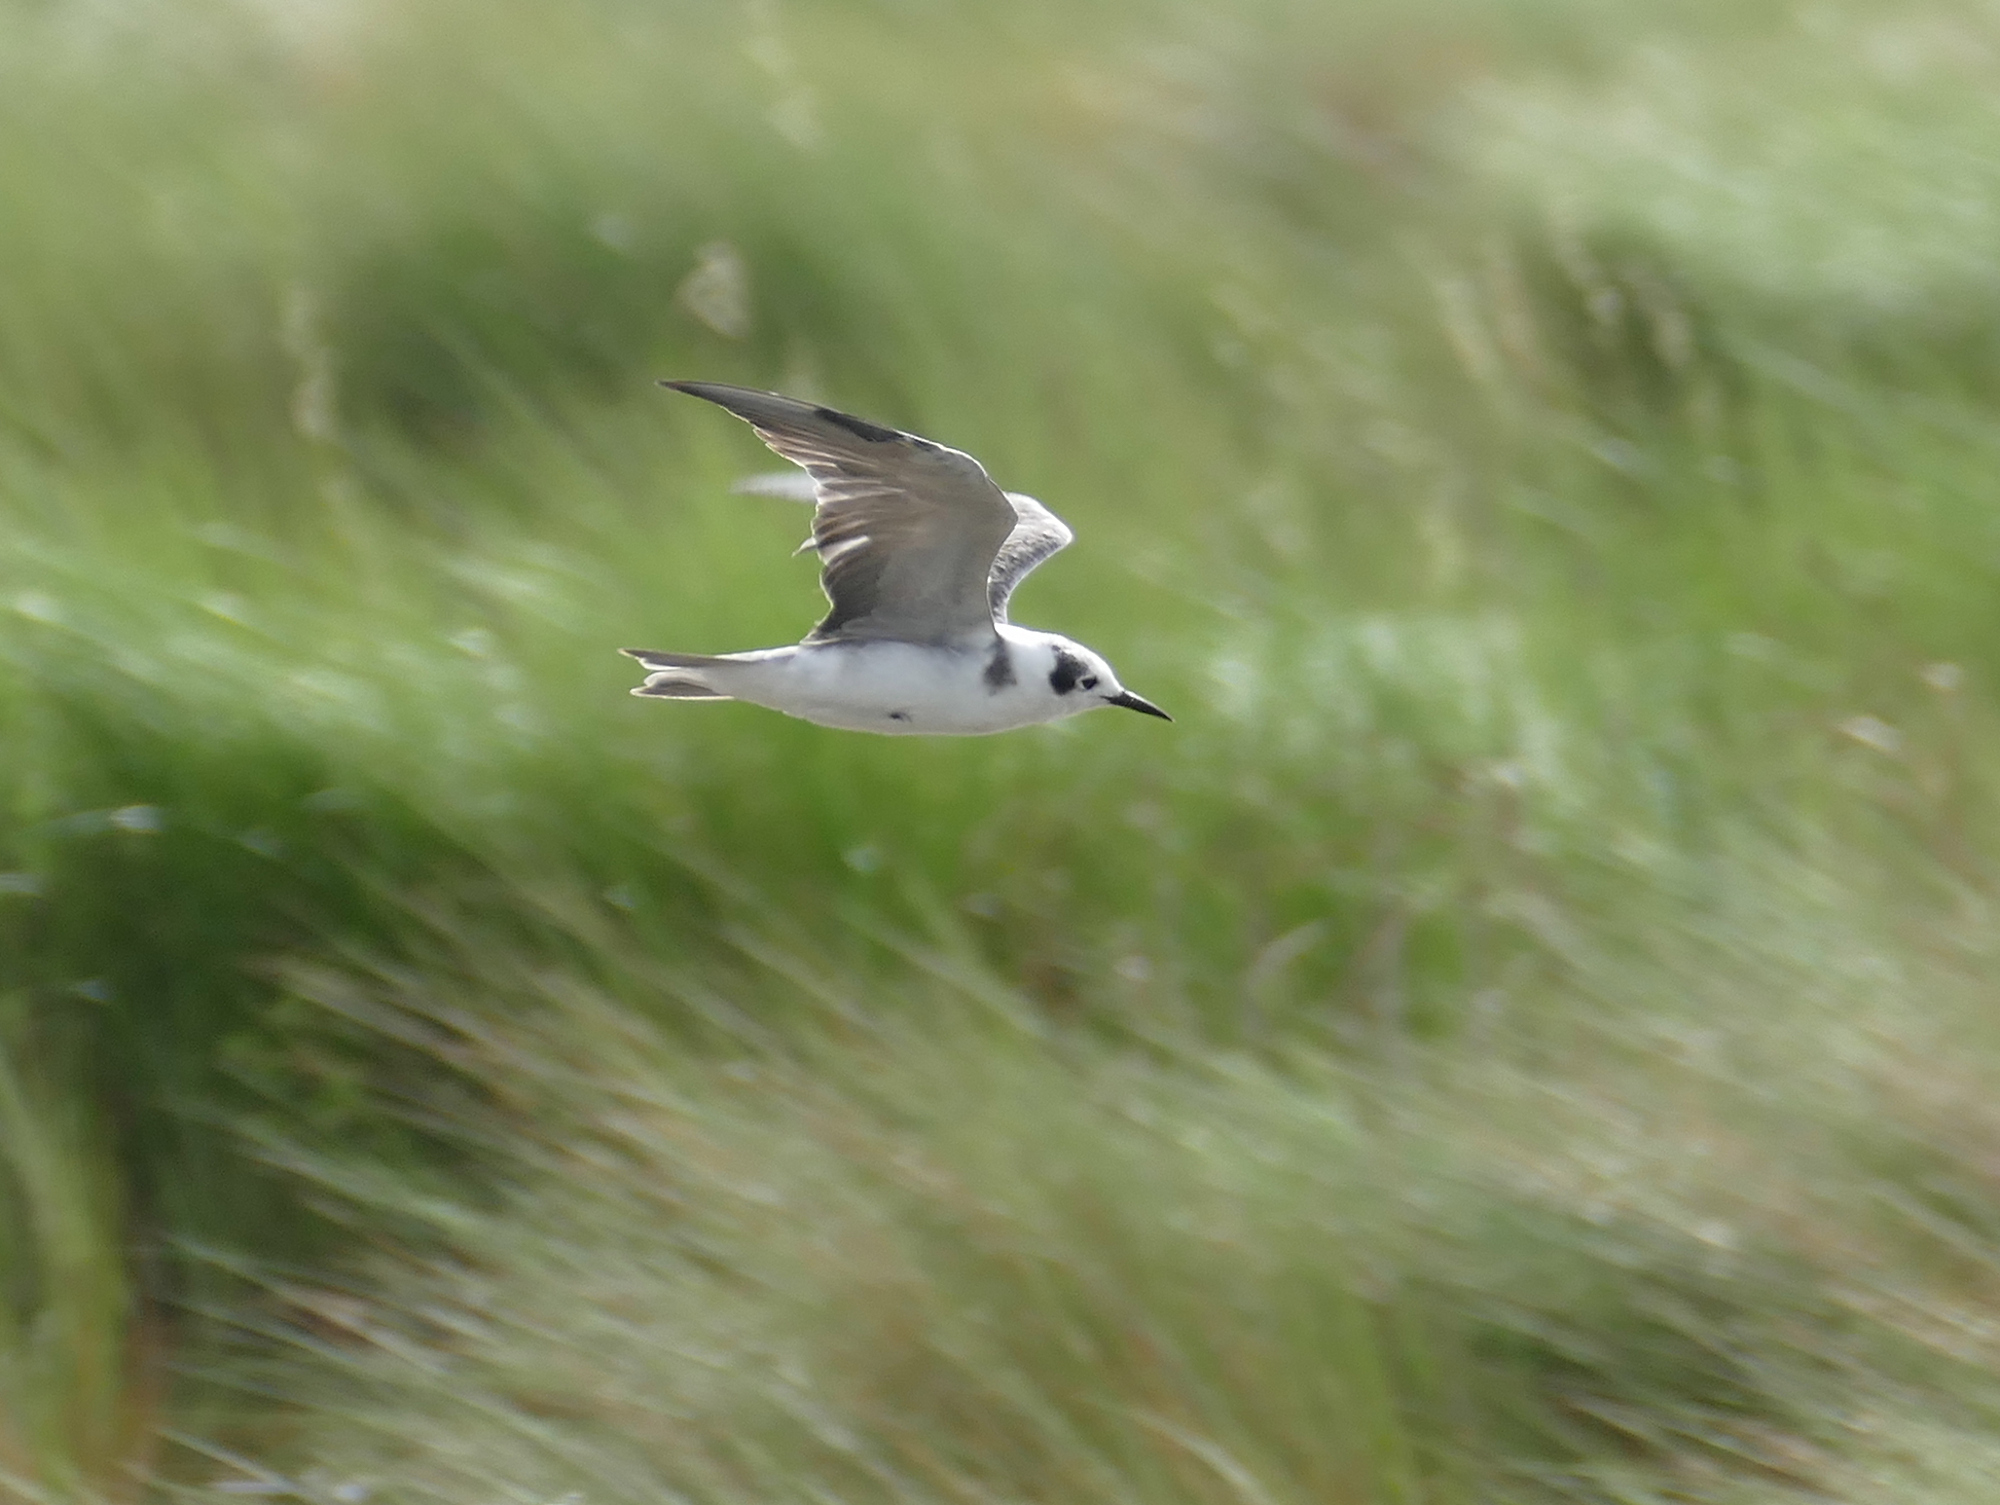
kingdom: Animalia
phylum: Chordata
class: Aves
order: Charadriiformes
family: Laridae
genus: Chlidonias
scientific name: Chlidonias niger
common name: Black tern
